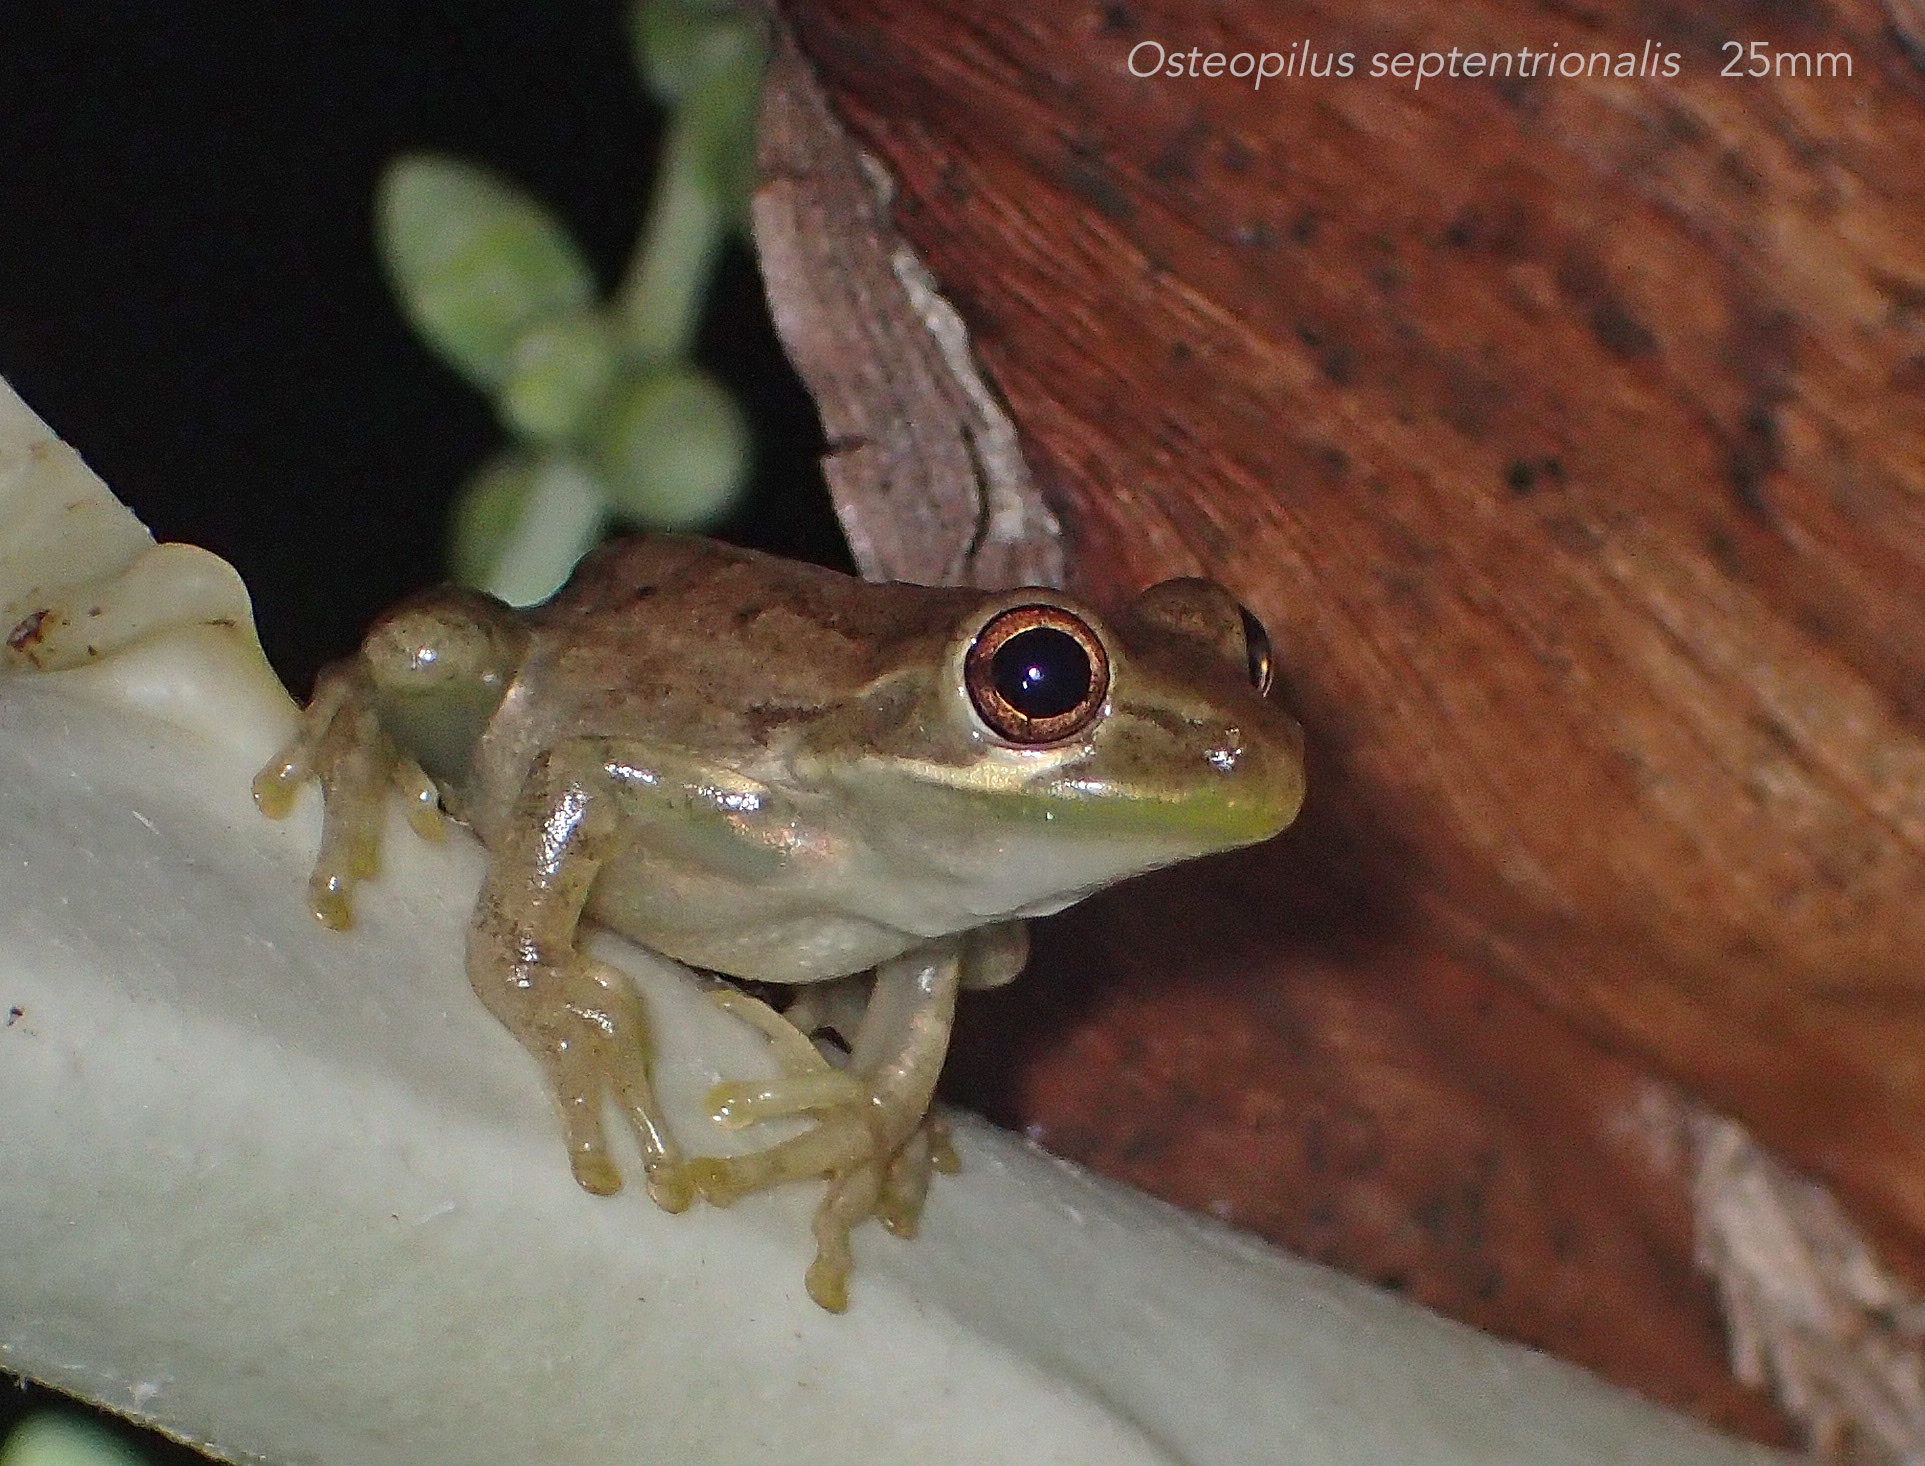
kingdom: Animalia
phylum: Chordata
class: Amphibia
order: Anura
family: Hylidae
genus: Osteopilus
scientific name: Osteopilus septentrionalis
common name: Cuban treefrog
